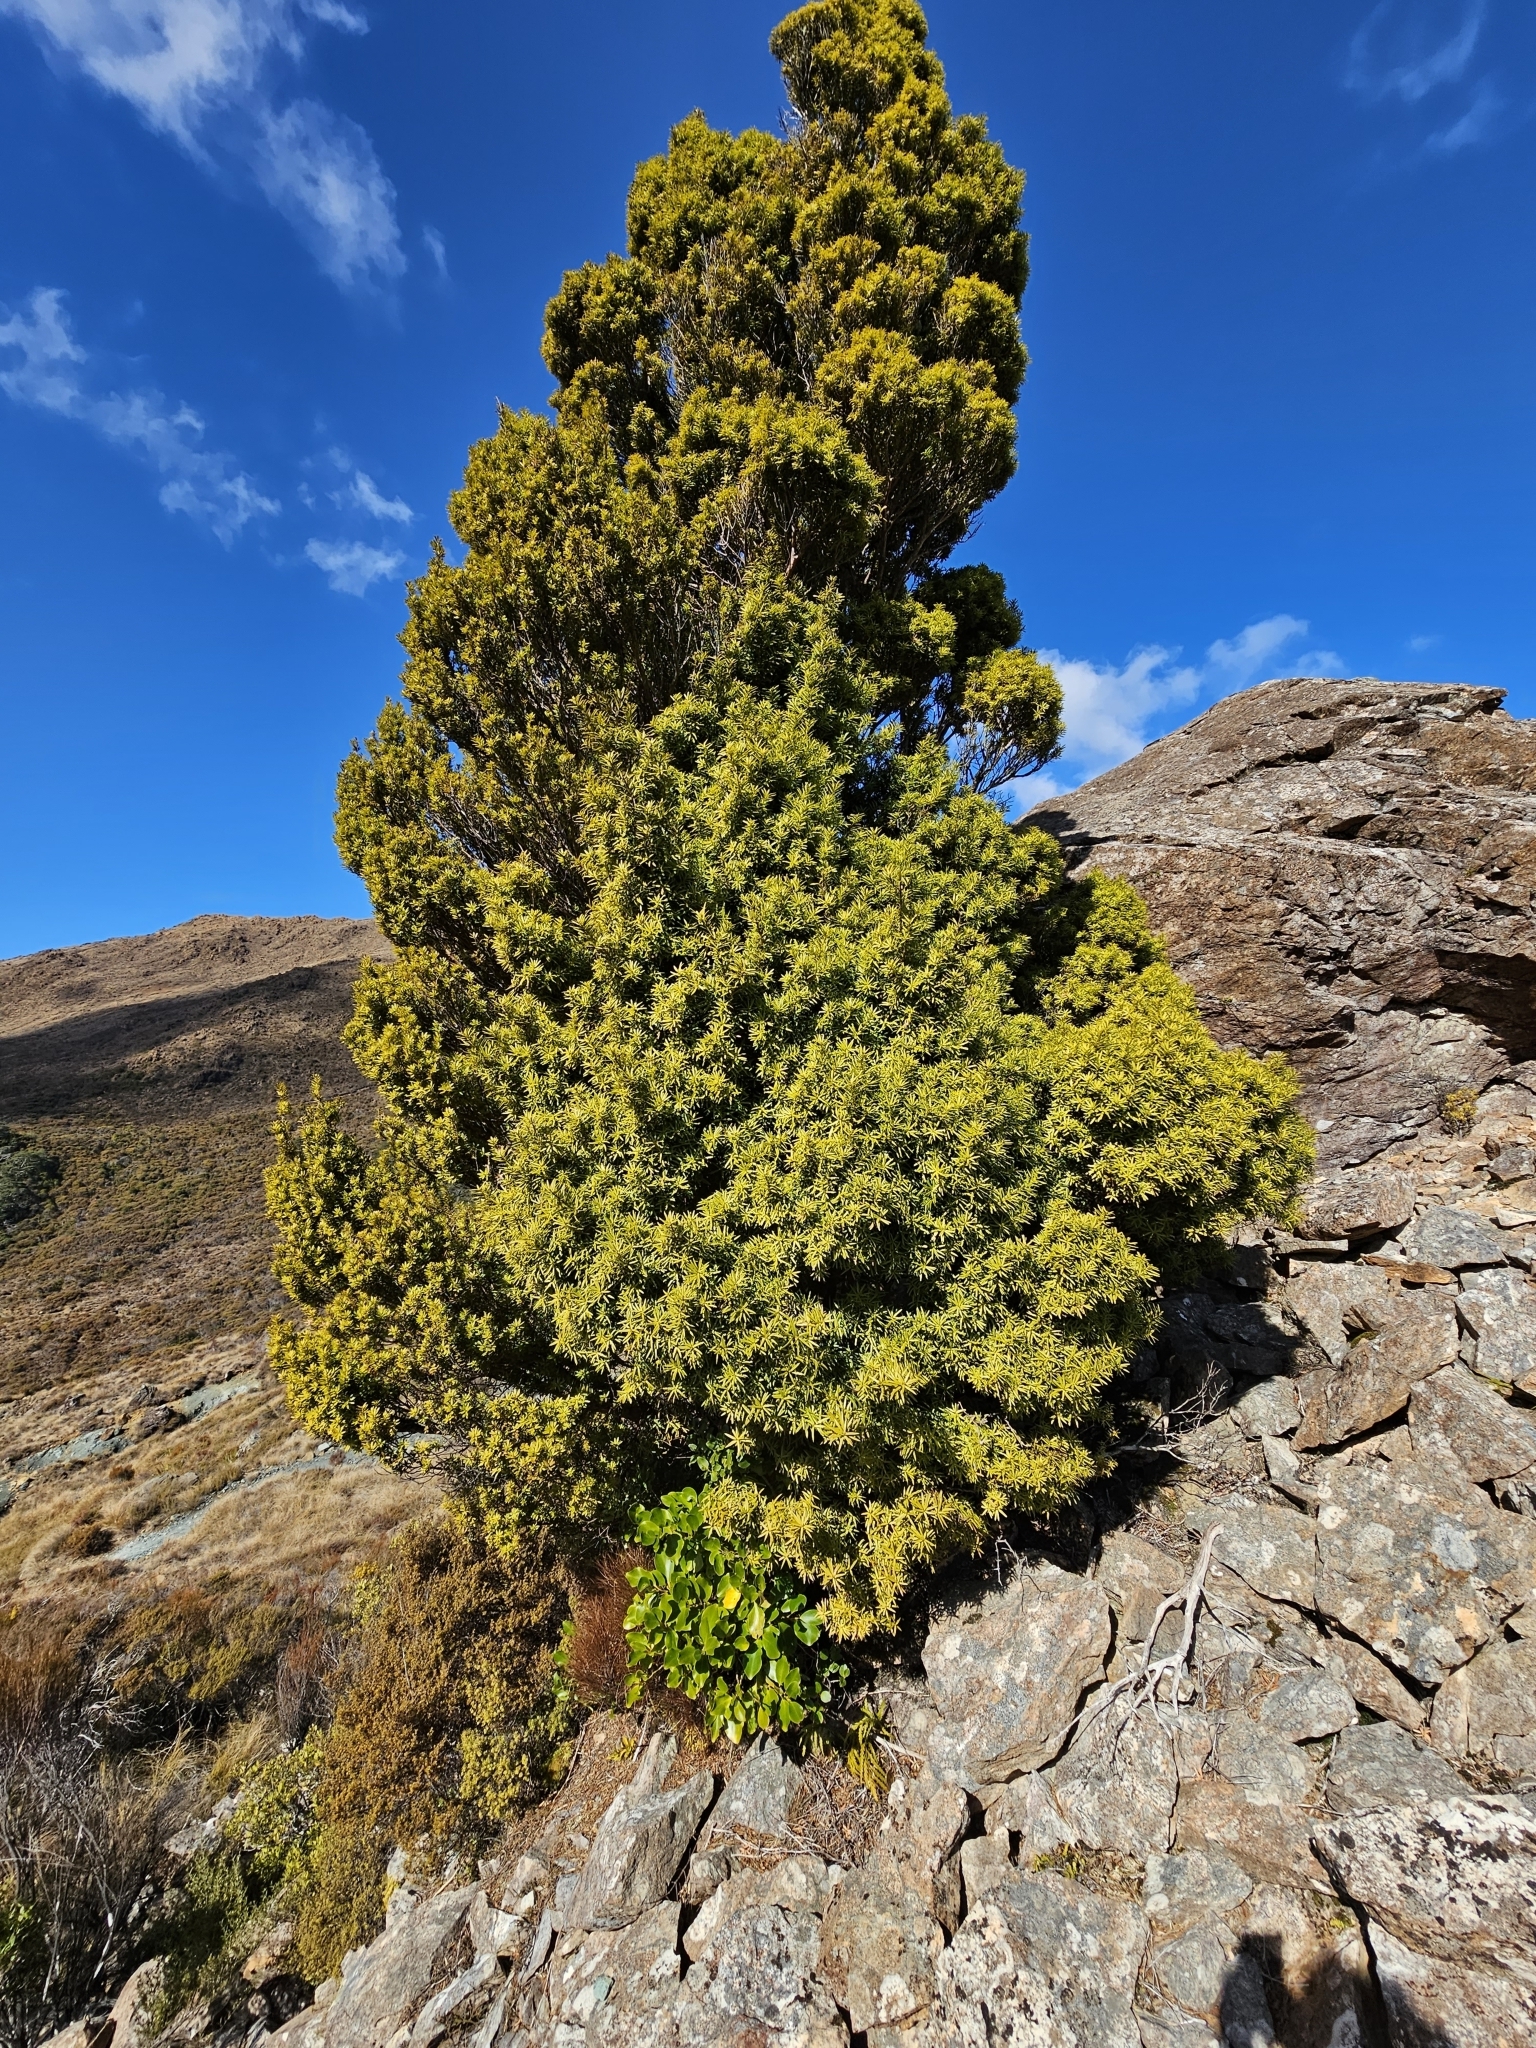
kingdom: Plantae
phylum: Tracheophyta
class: Pinopsida
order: Pinales
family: Podocarpaceae
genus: Podocarpus
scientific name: Podocarpus laetus
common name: Hall's totara
